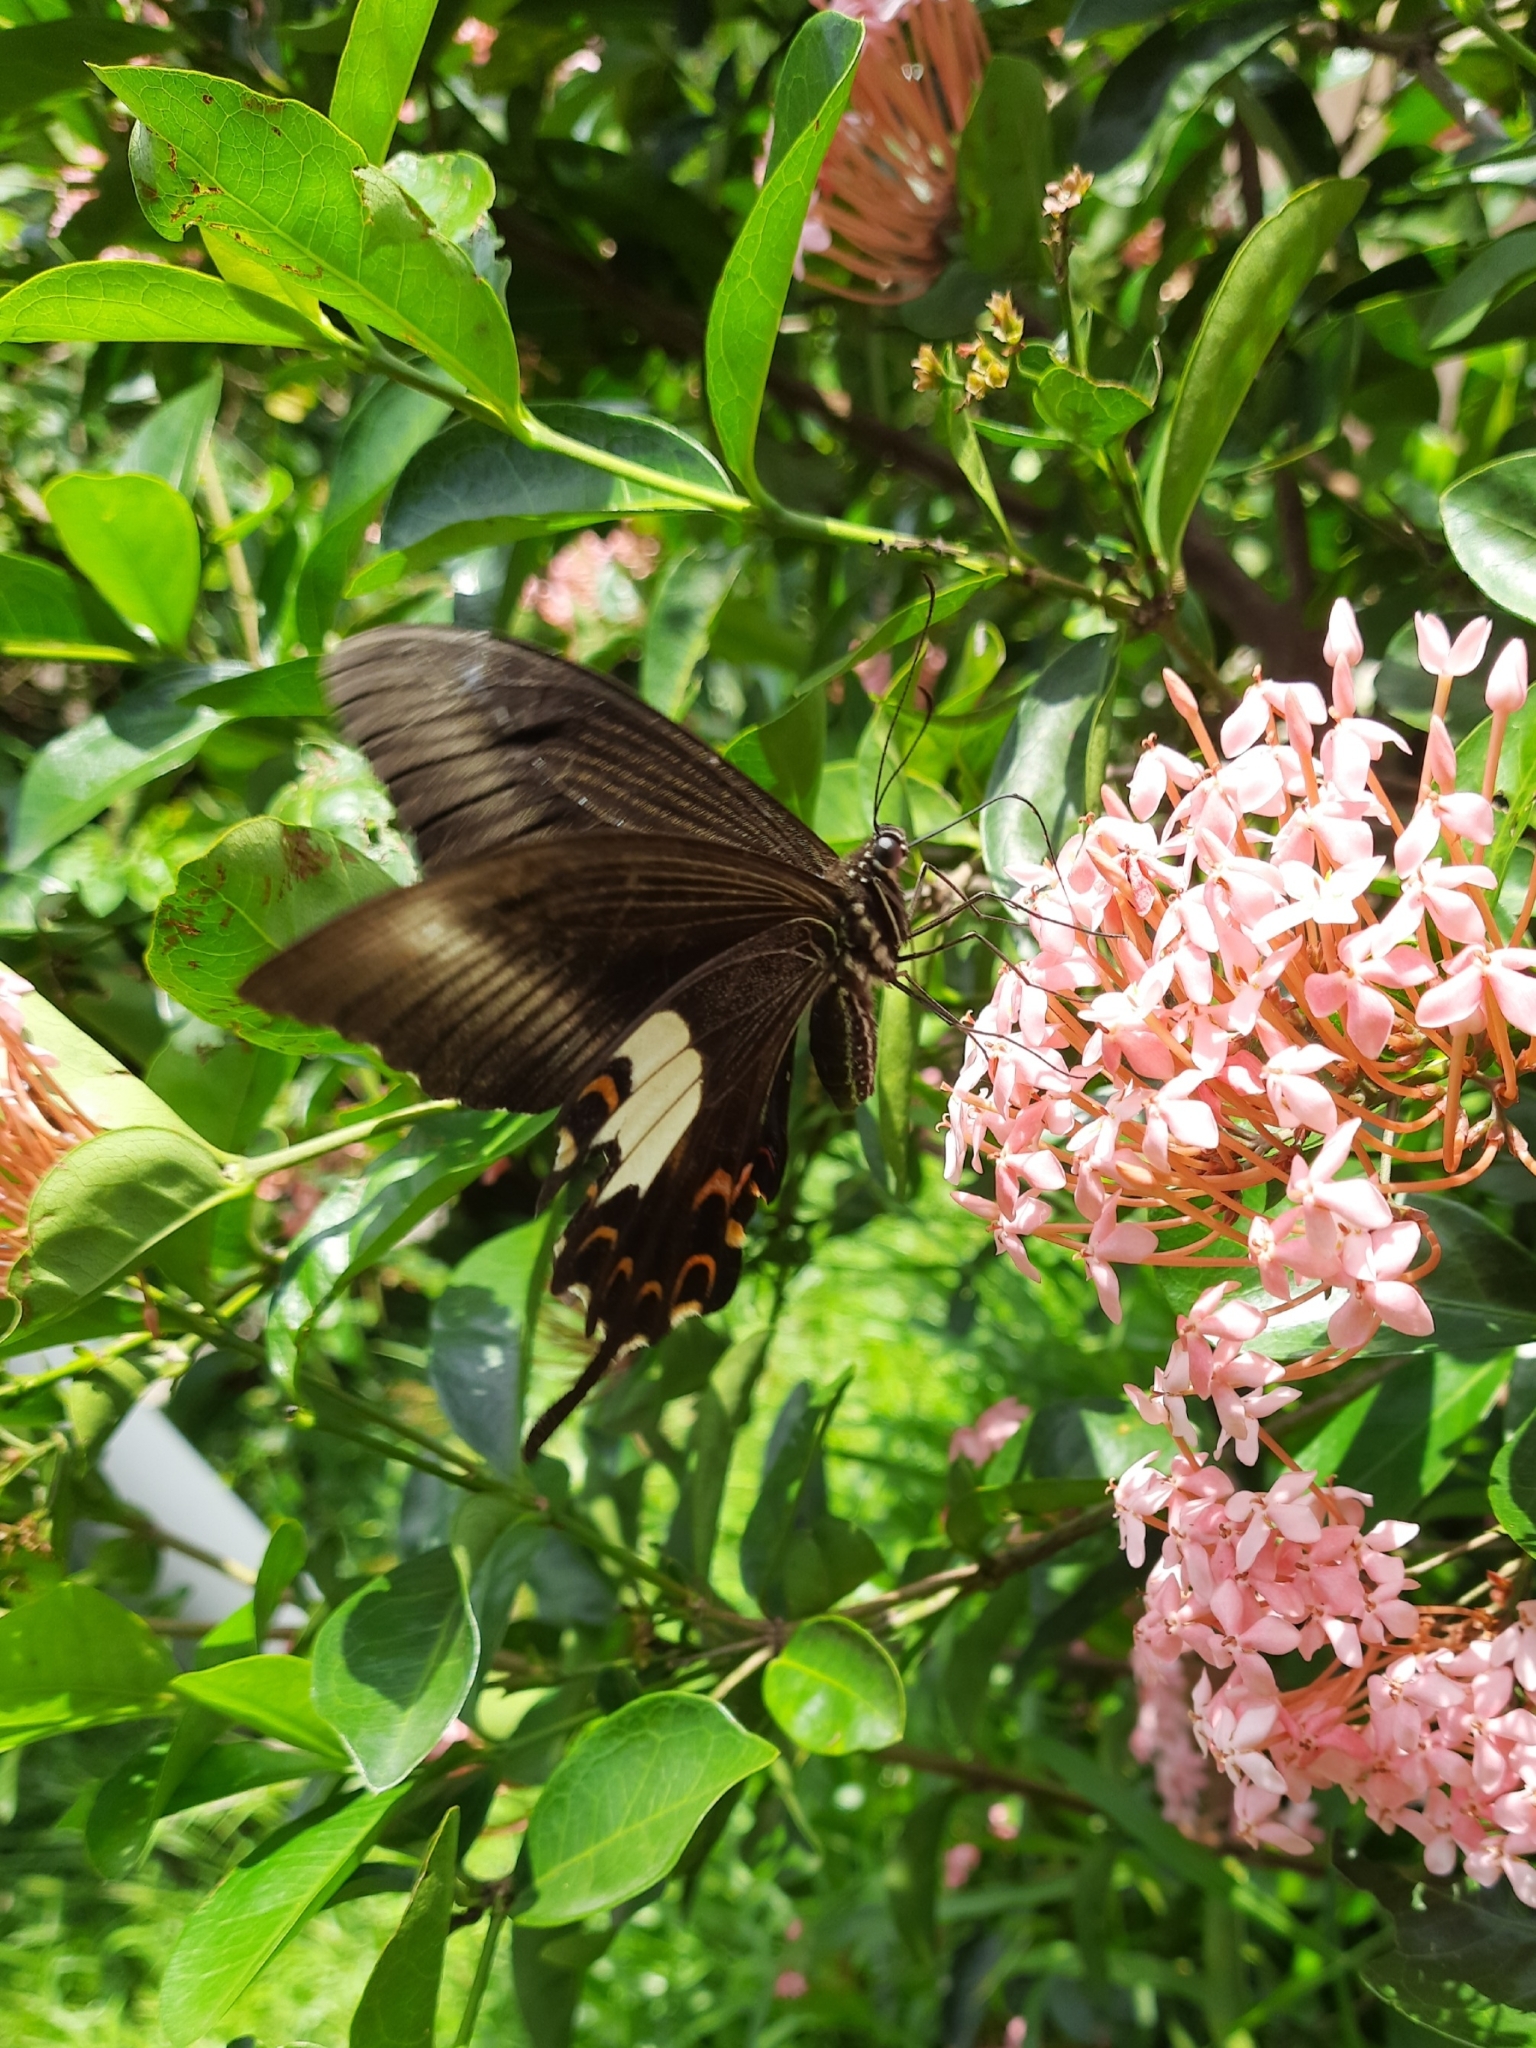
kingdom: Animalia
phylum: Arthropoda
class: Insecta
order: Lepidoptera
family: Papilionidae
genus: Papilio
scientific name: Papilio helenus
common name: Red helen
